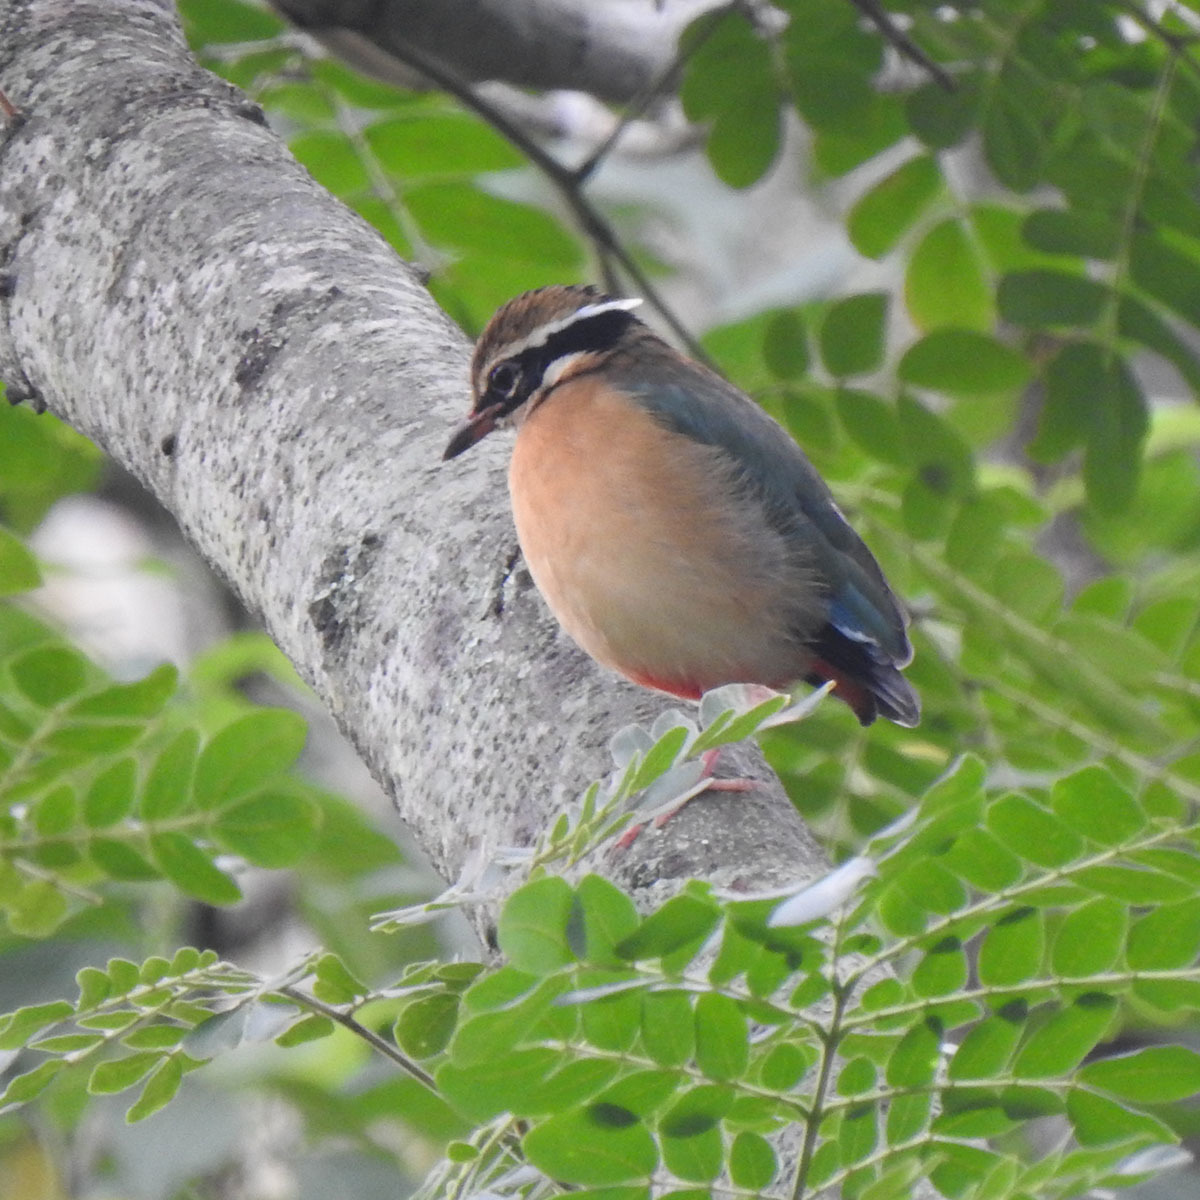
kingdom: Animalia
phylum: Chordata
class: Aves
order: Passeriformes
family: Pittidae
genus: Pitta
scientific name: Pitta brachyura
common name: Indian pitta
